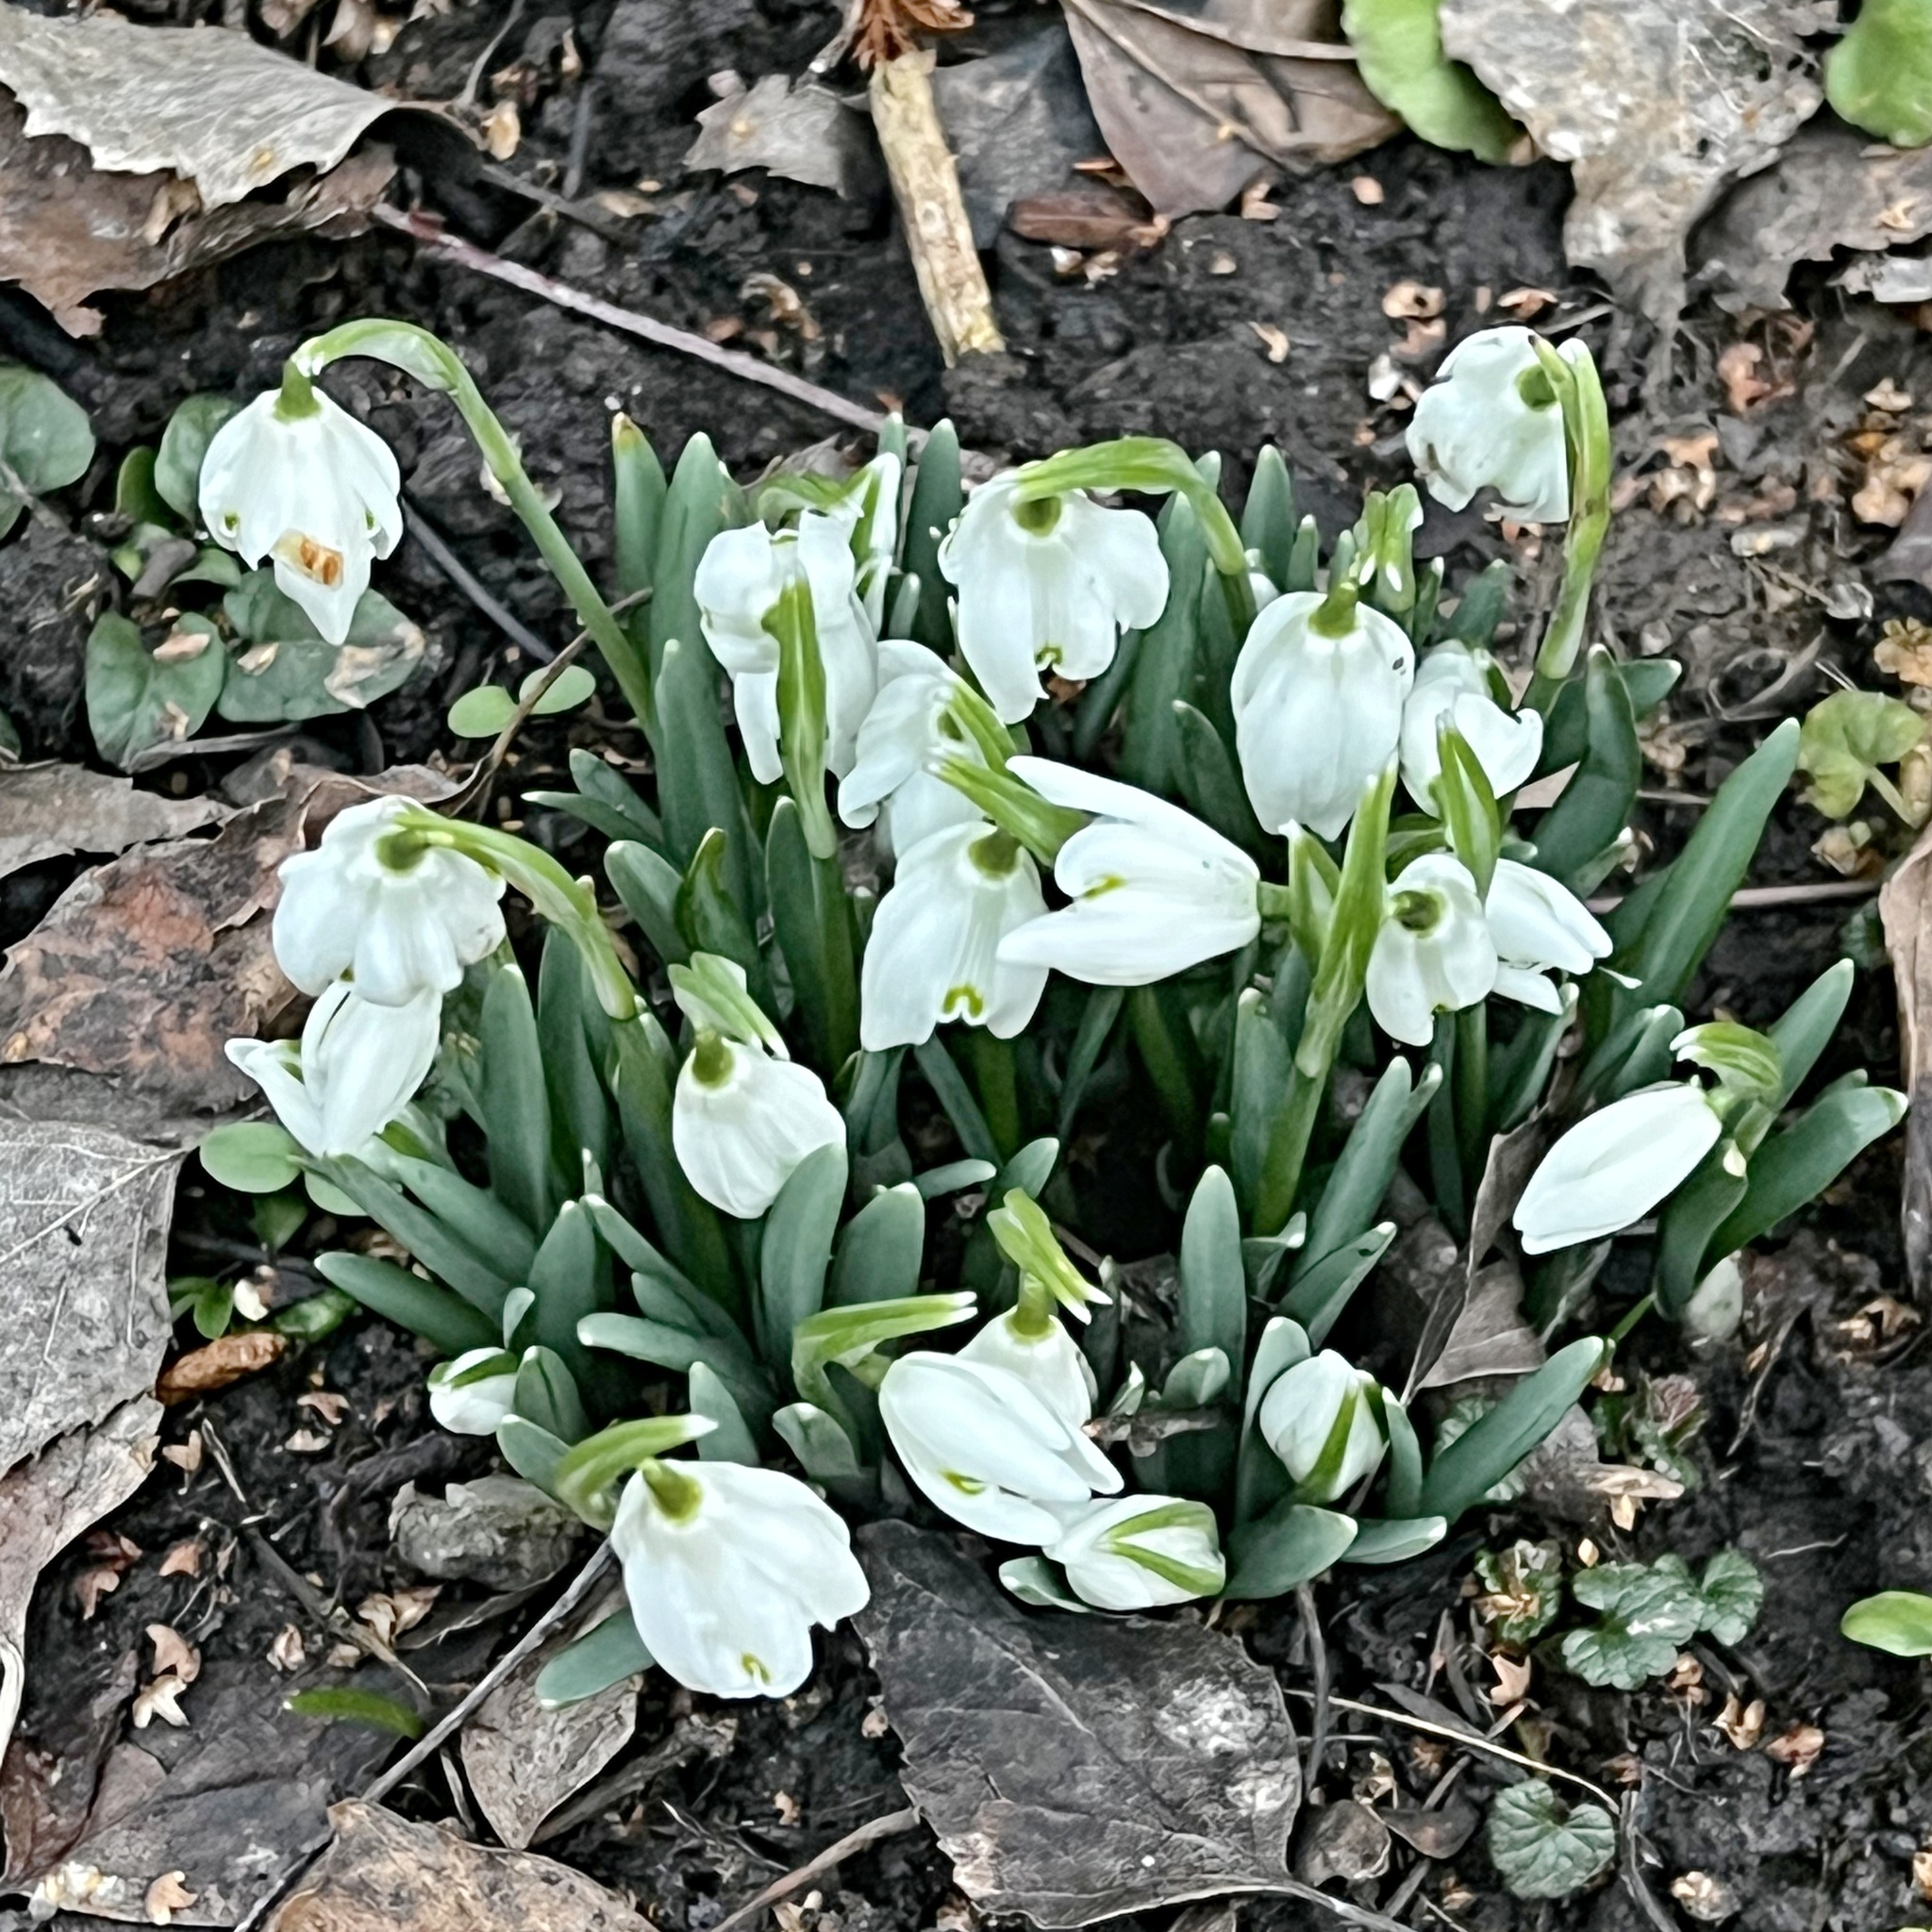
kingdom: Plantae
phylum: Tracheophyta
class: Liliopsida
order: Asparagales
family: Amaryllidaceae
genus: Galanthus
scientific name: Galanthus nivalis
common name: Snowdrop
